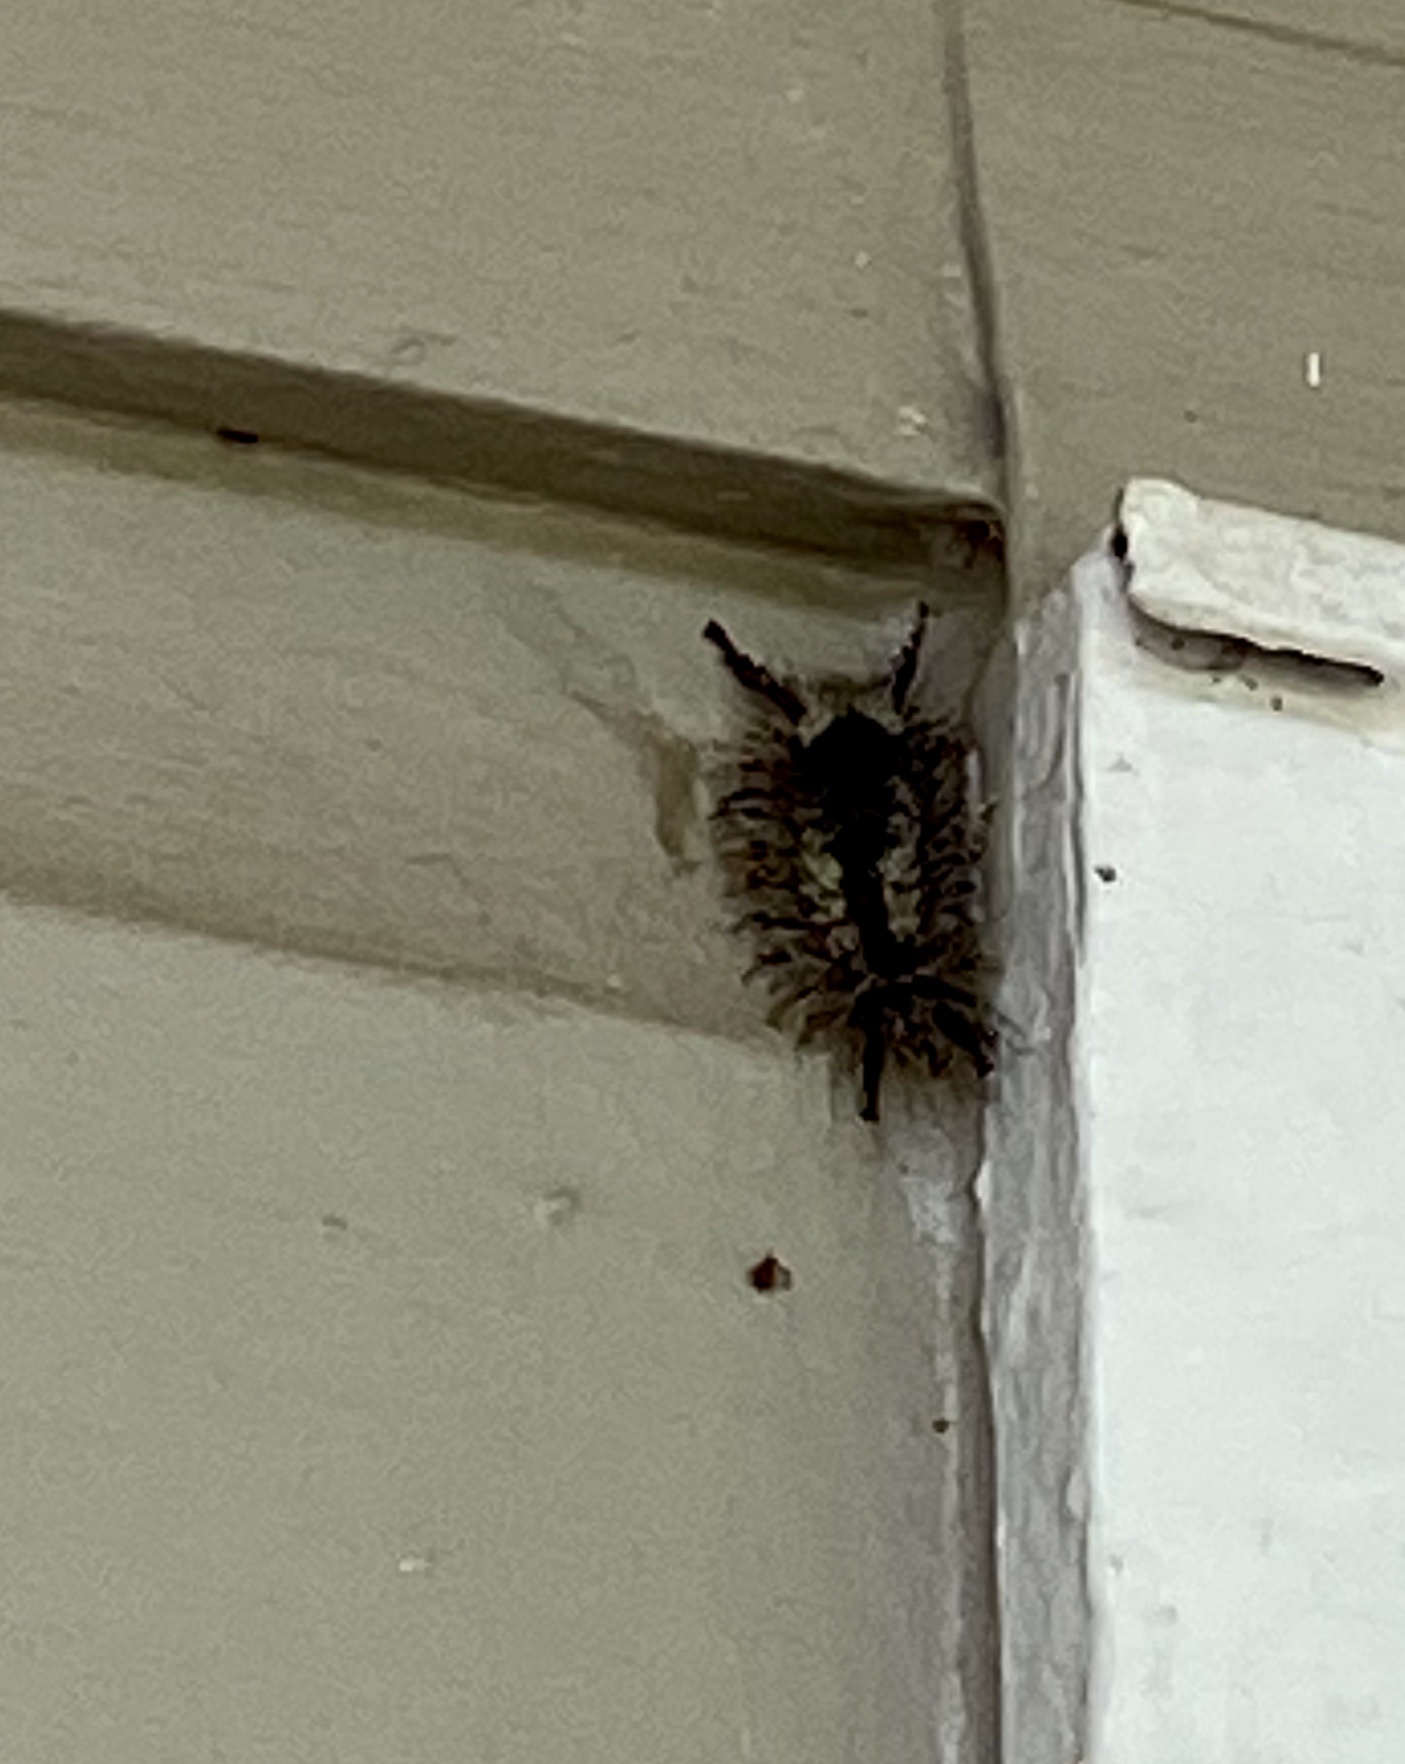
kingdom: Animalia
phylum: Arthropoda
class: Insecta
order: Lepidoptera
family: Erebidae
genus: Dasychira
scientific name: Dasychira meridionalis
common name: Southern tussock moth
